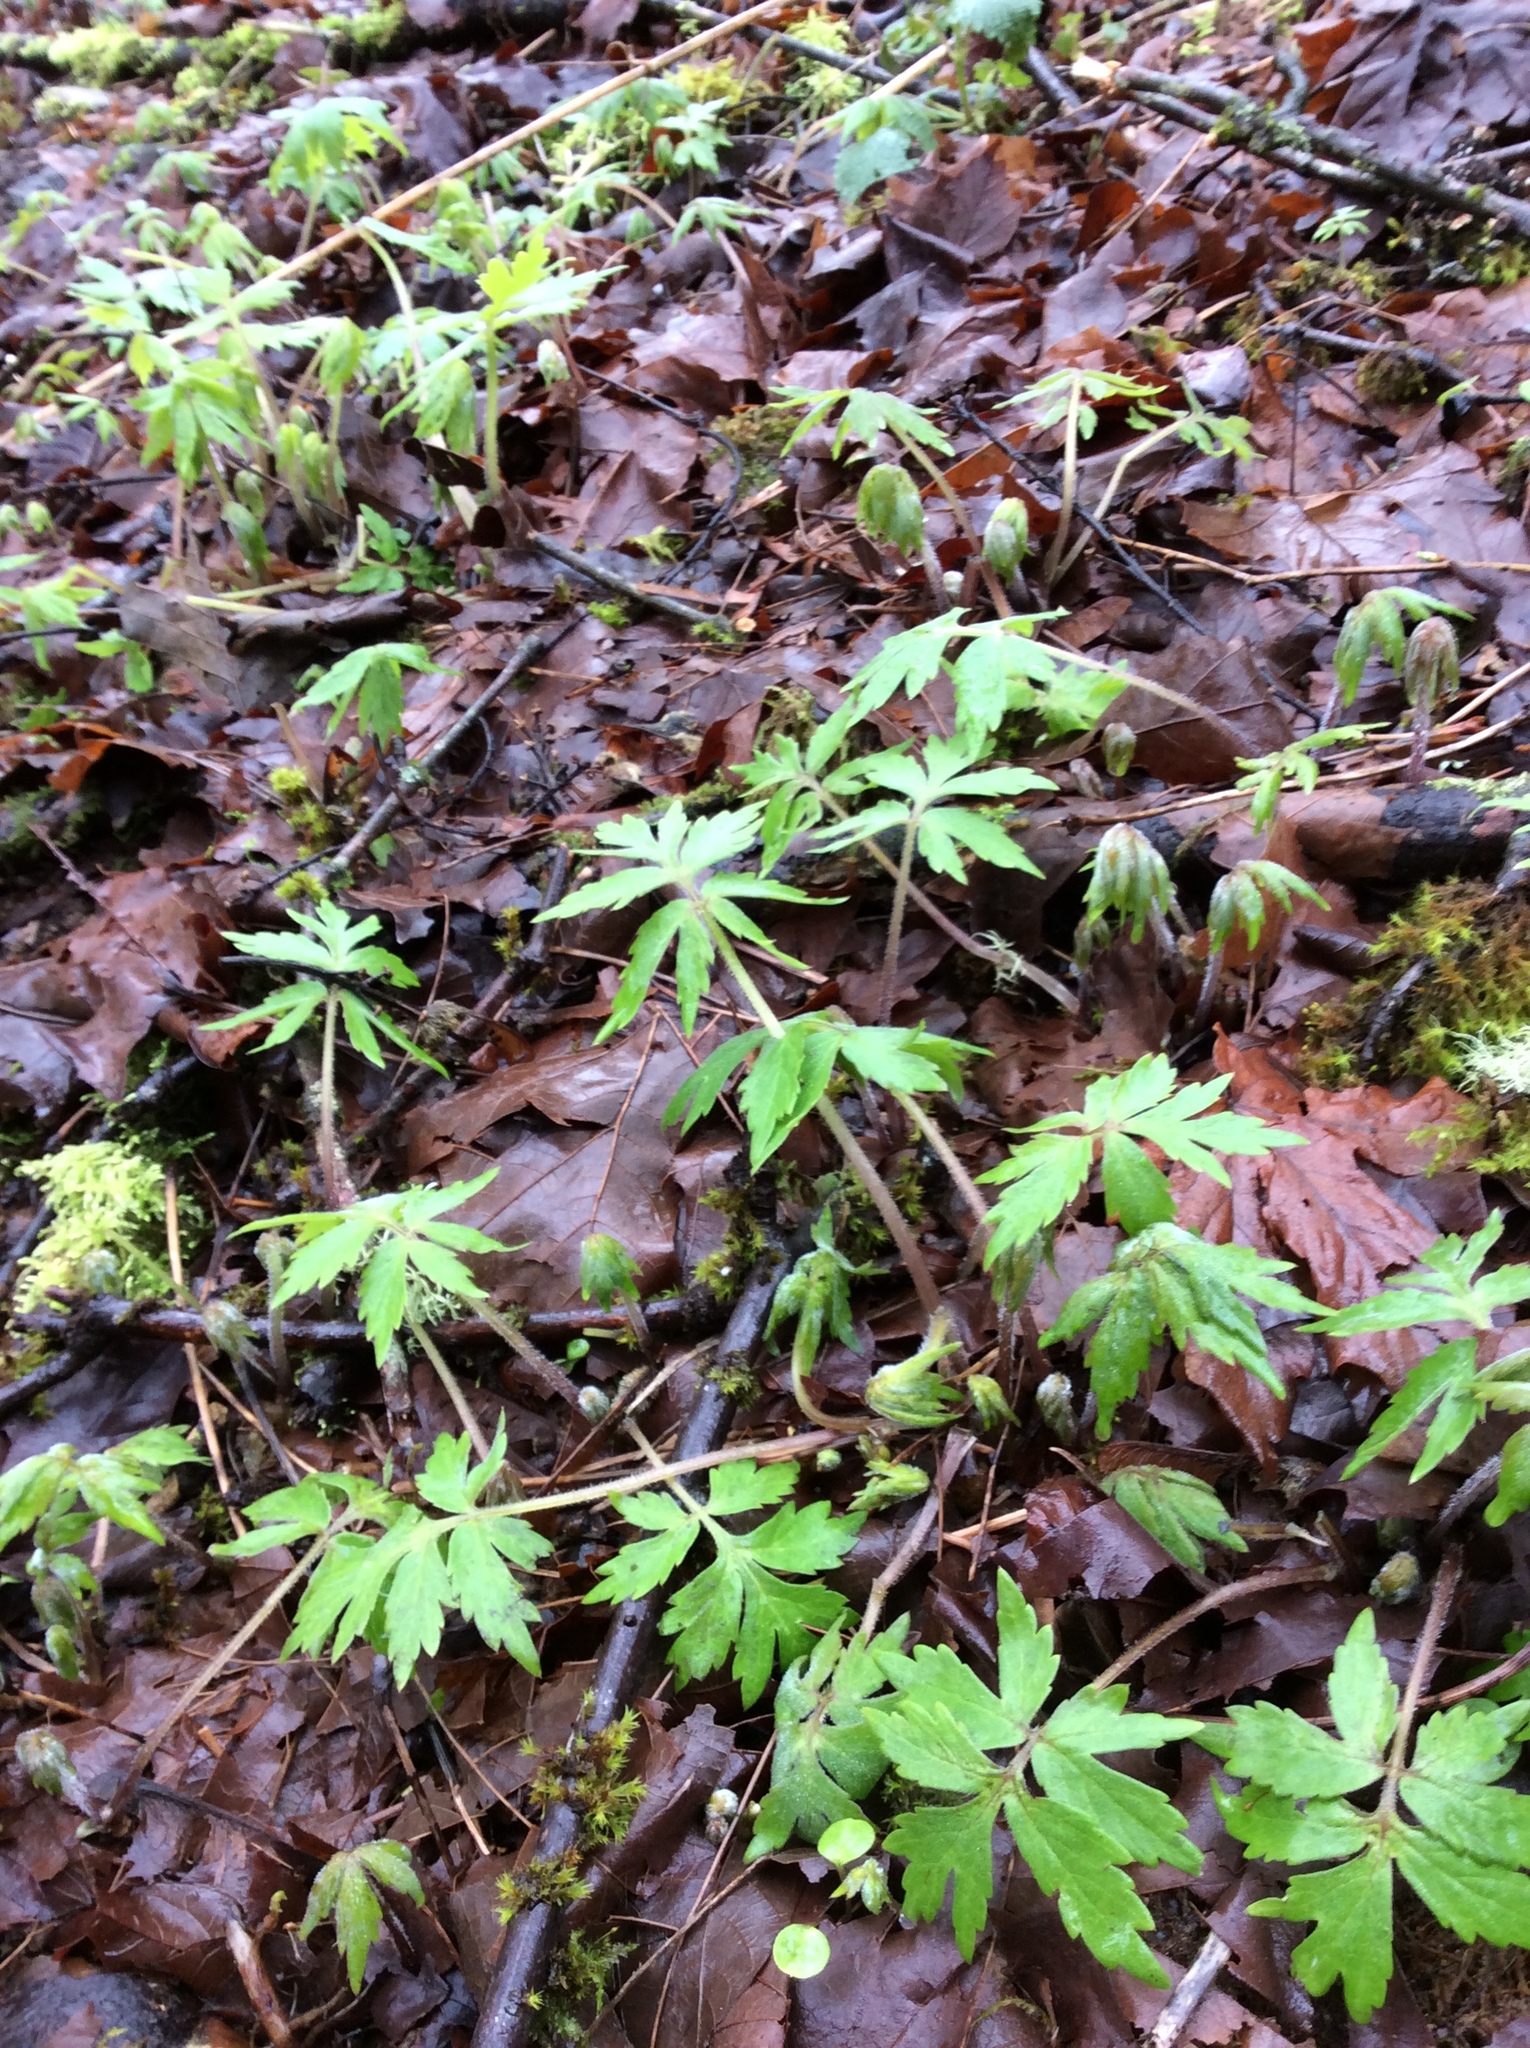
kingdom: Plantae
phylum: Tracheophyta
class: Magnoliopsida
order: Boraginales
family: Hydrophyllaceae
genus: Hydrophyllum
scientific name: Hydrophyllum tenuipes
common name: Pacific waterleaf
